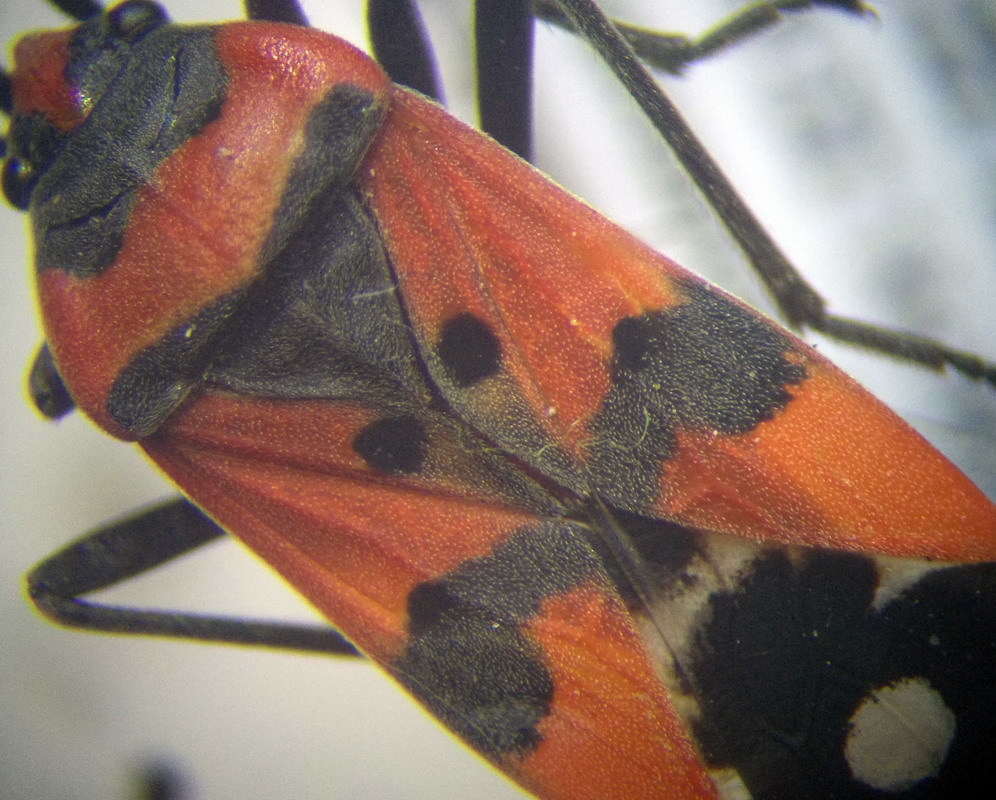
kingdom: Animalia
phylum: Arthropoda
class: Insecta
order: Hemiptera
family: Lygaeidae
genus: Lygaeus
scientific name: Lygaeus equestris
